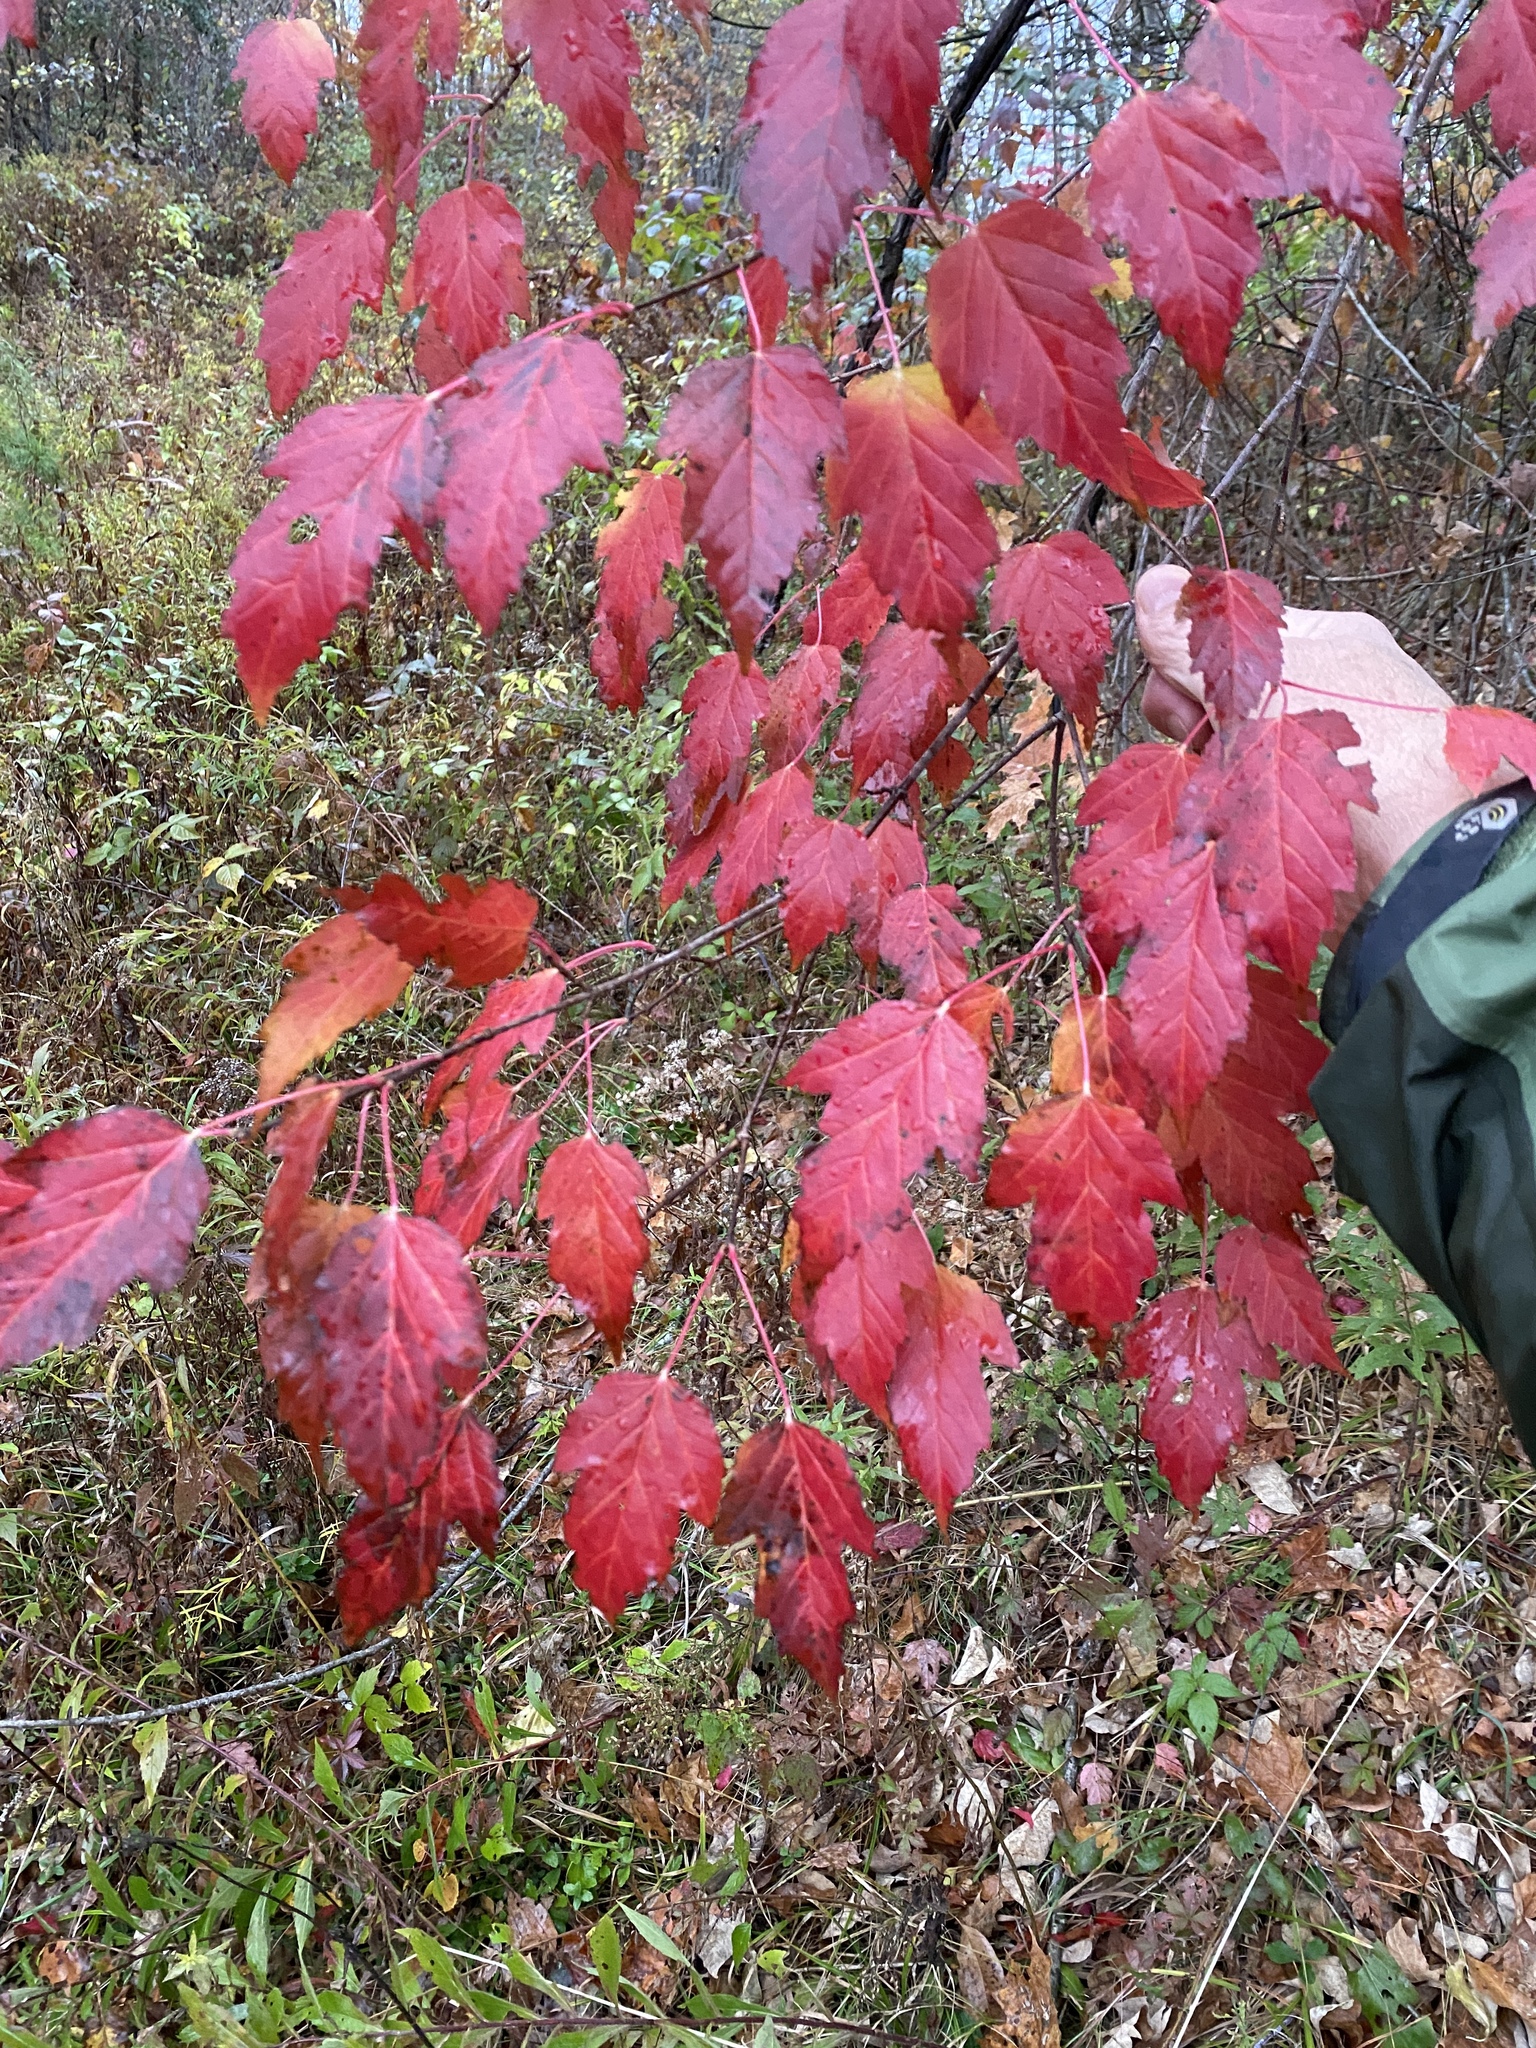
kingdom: Plantae
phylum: Tracheophyta
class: Magnoliopsida
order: Sapindales
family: Sapindaceae
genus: Acer
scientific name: Acer tataricum
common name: Tartar maple
